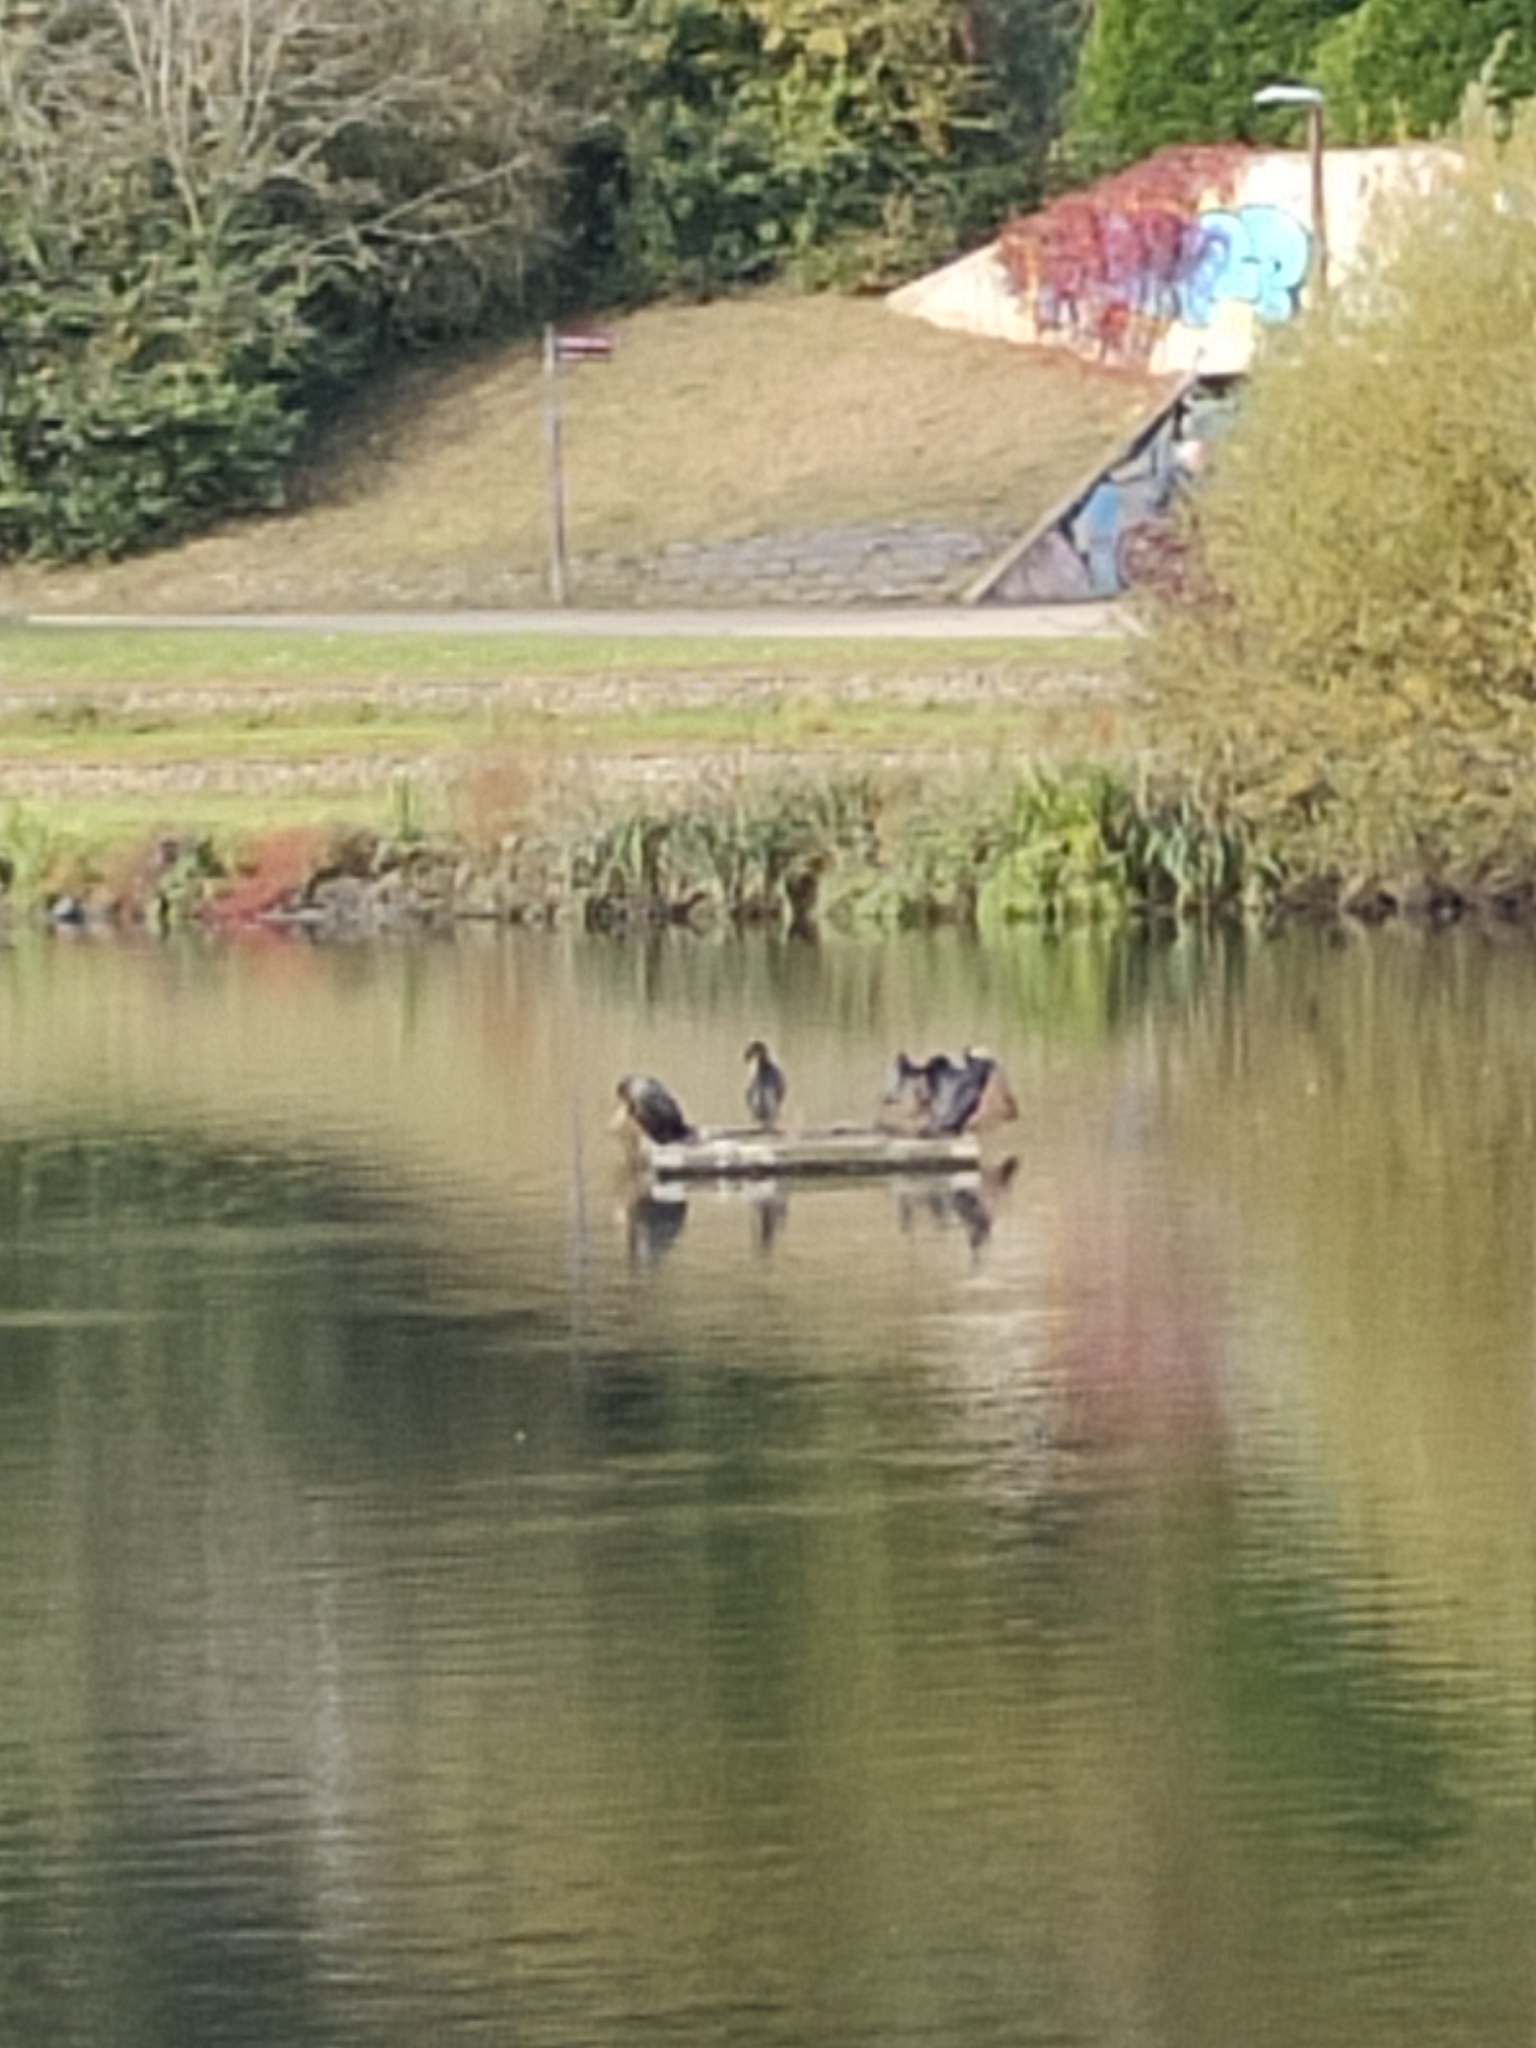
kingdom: Animalia
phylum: Chordata
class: Aves
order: Suliformes
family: Phalacrocoracidae
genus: Phalacrocorax
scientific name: Phalacrocorax carbo
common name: Great cormorant
